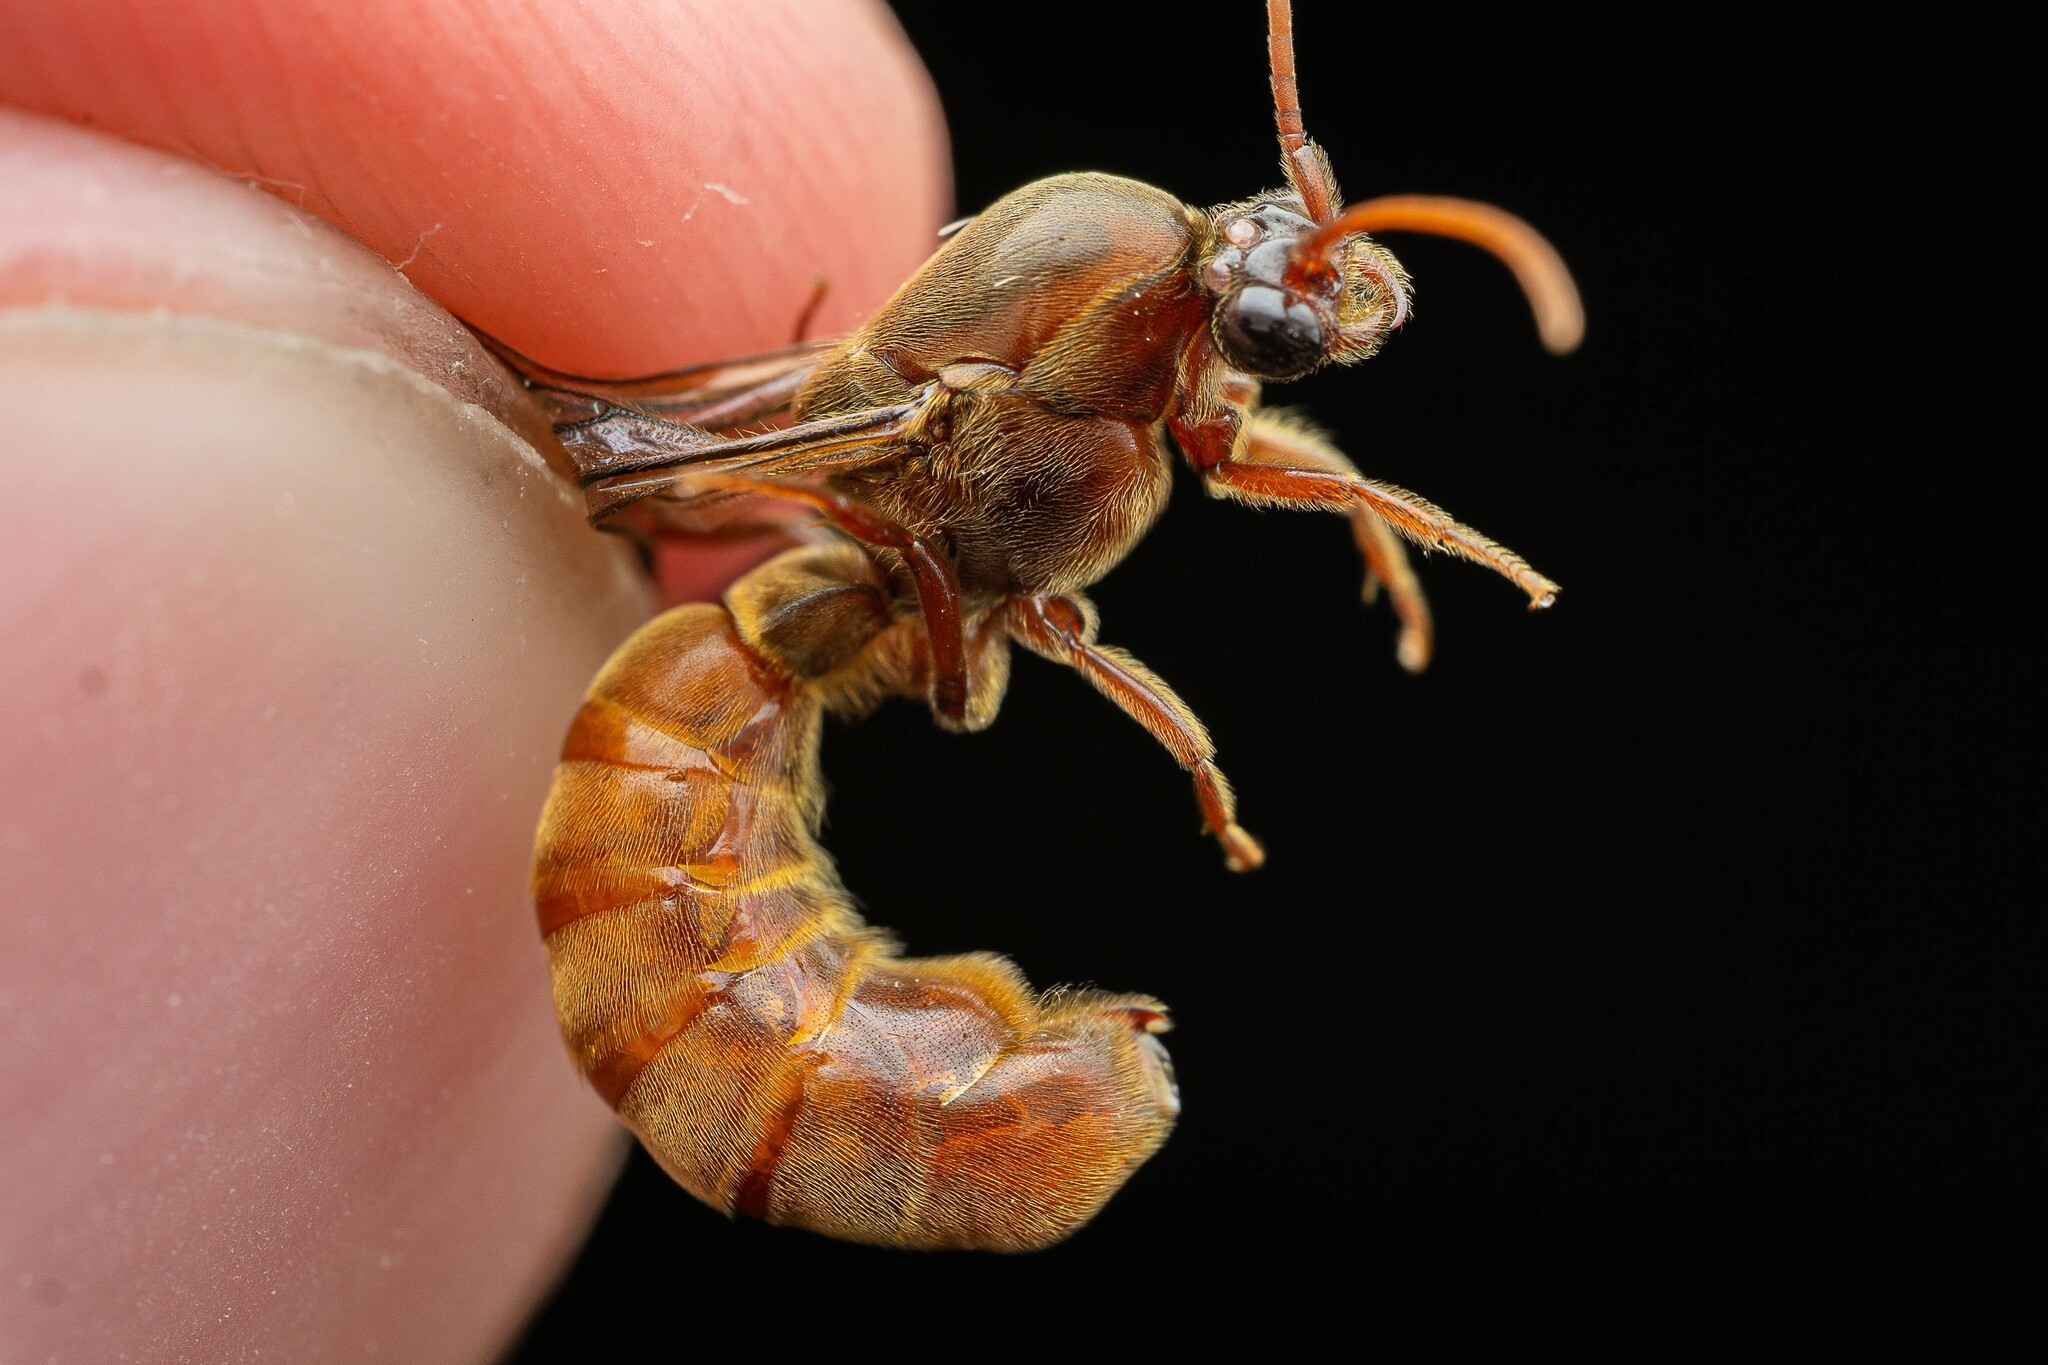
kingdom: Animalia
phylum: Arthropoda
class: Insecta
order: Hymenoptera
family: Formicidae
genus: Neivamyrmex
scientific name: Neivamyrmex andrei
